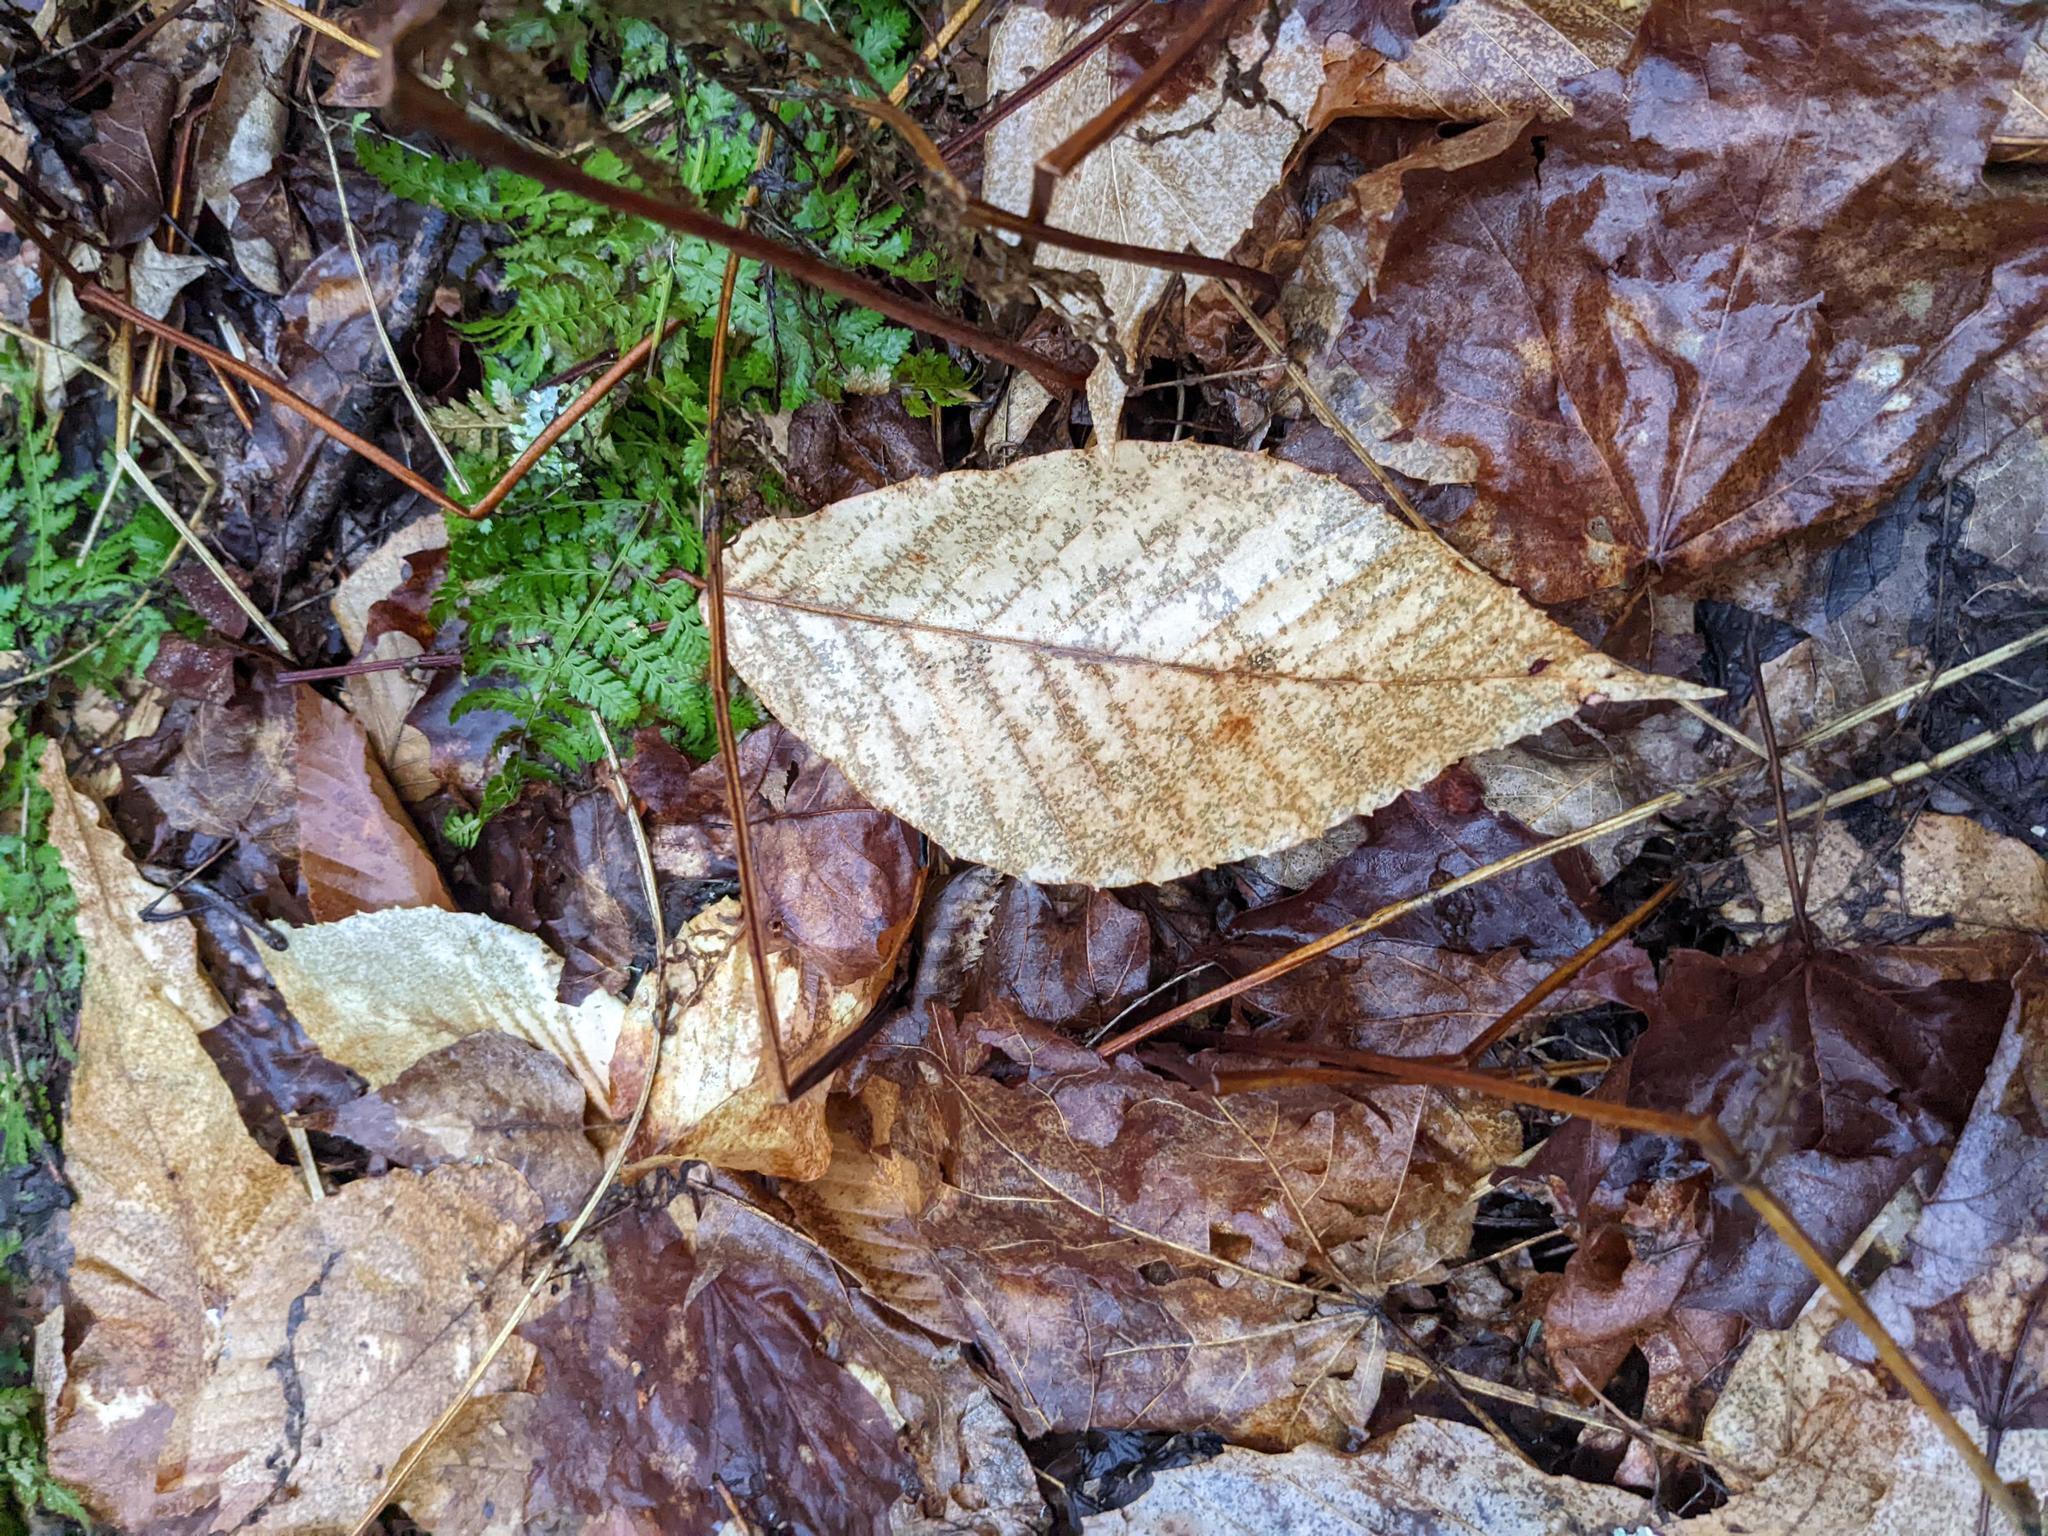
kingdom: Plantae
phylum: Tracheophyta
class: Magnoliopsida
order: Fagales
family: Fagaceae
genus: Fagus
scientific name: Fagus grandifolia
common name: American beech
